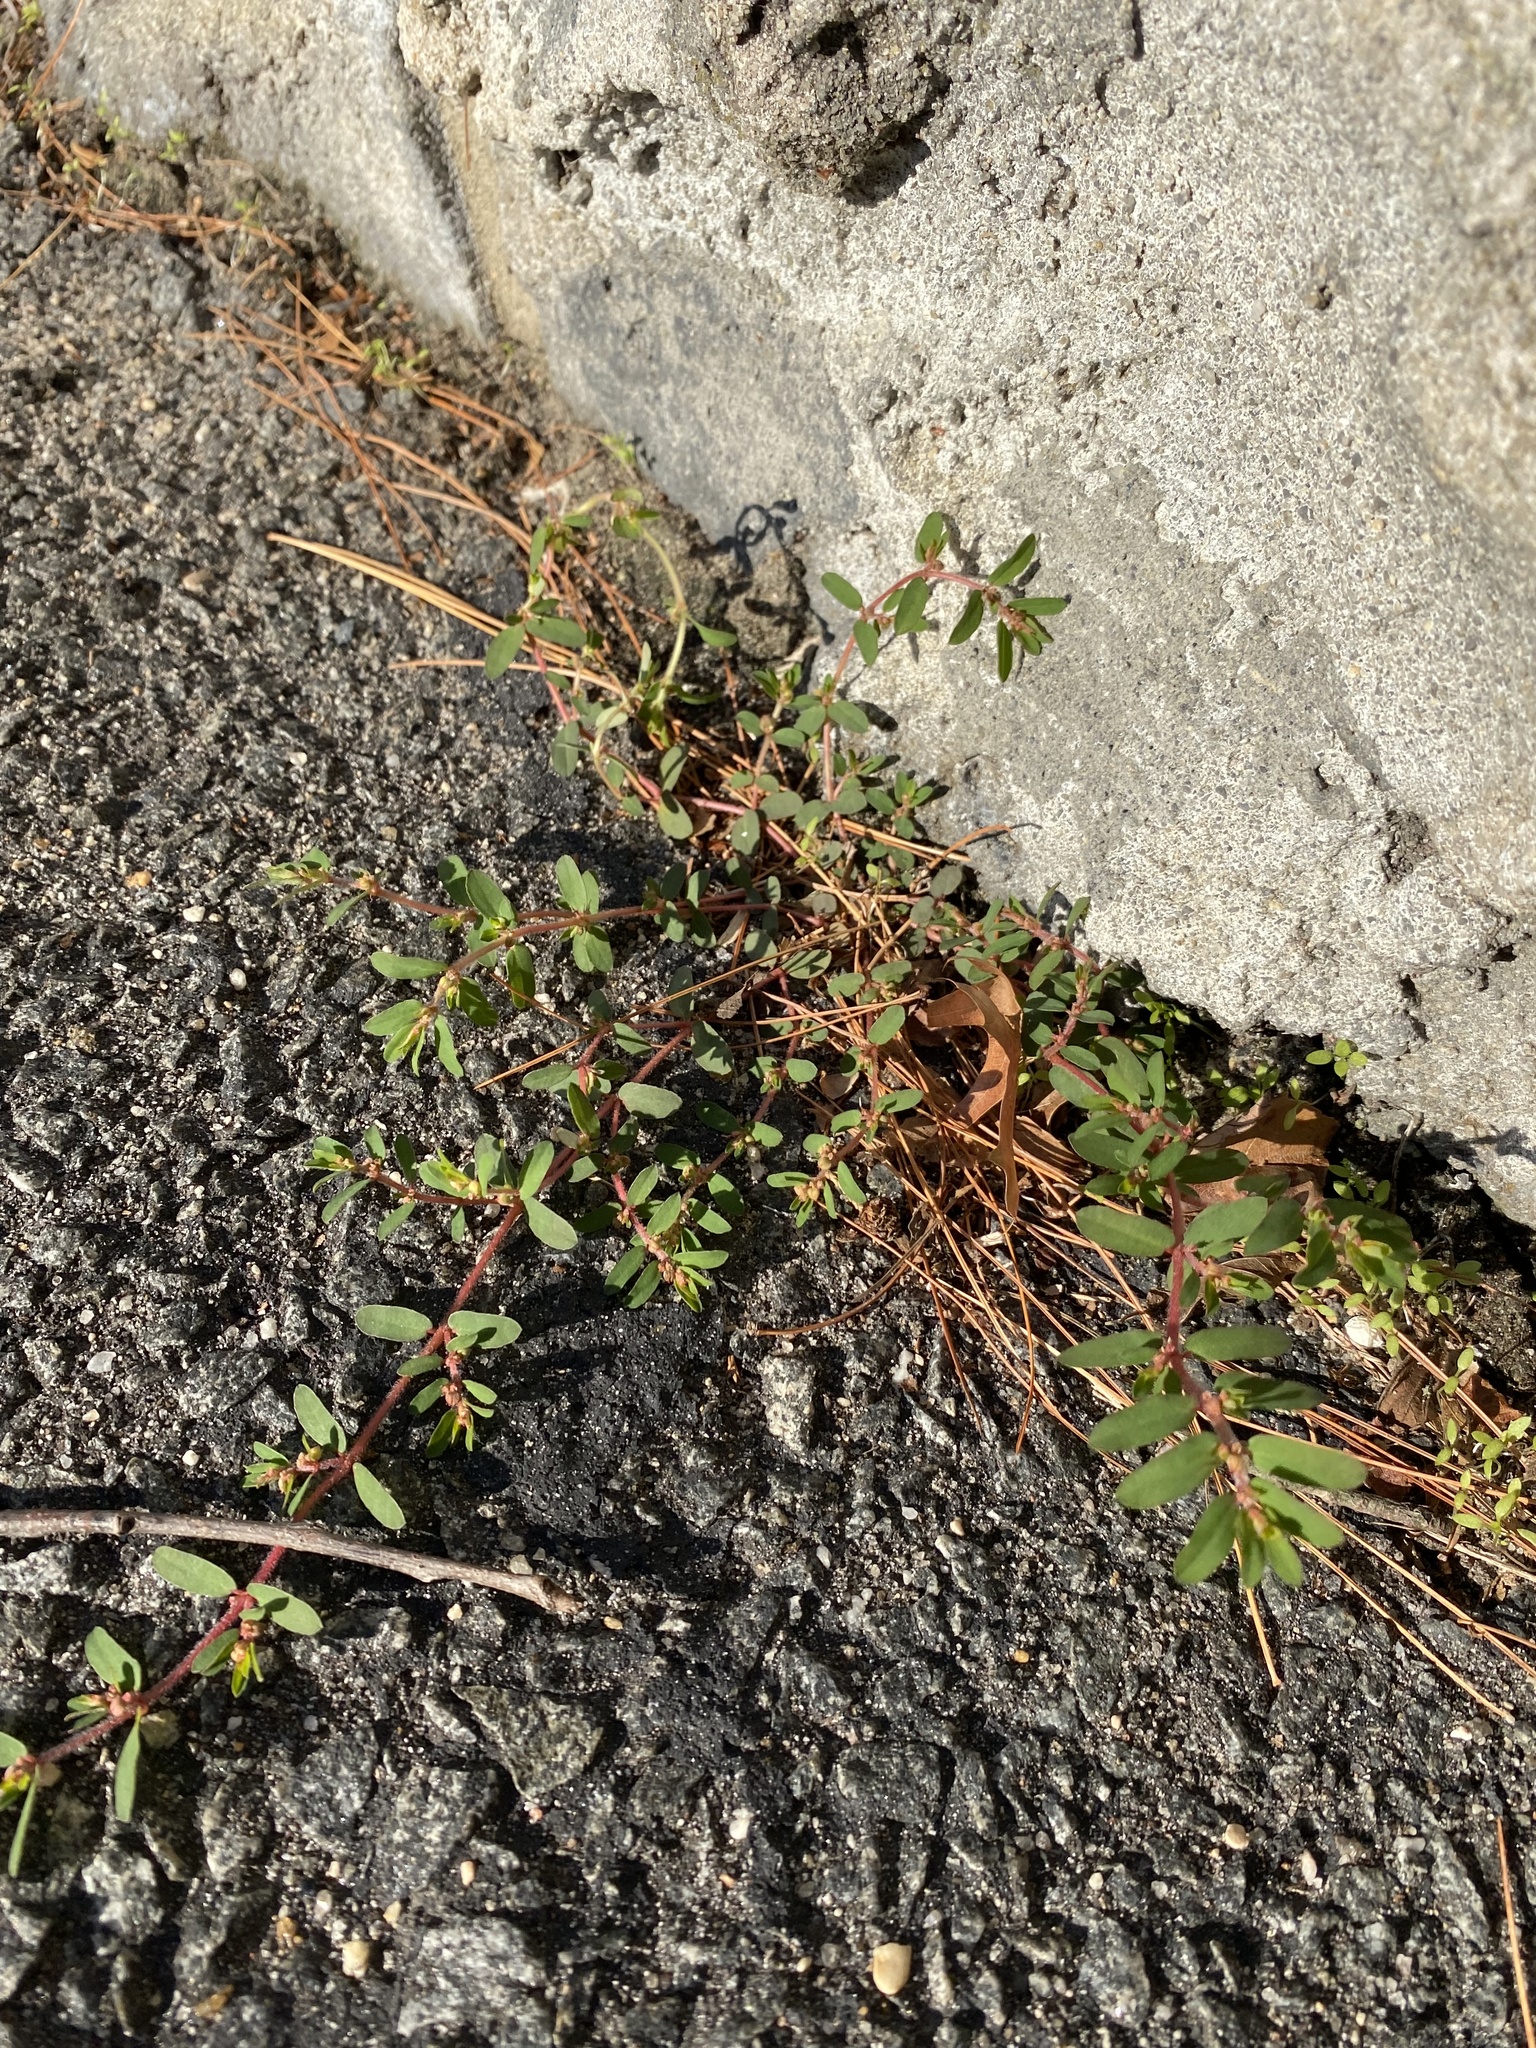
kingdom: Plantae
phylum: Tracheophyta
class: Magnoliopsida
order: Malpighiales
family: Euphorbiaceae
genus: Euphorbia
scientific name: Euphorbia maculata
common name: Spotted spurge
